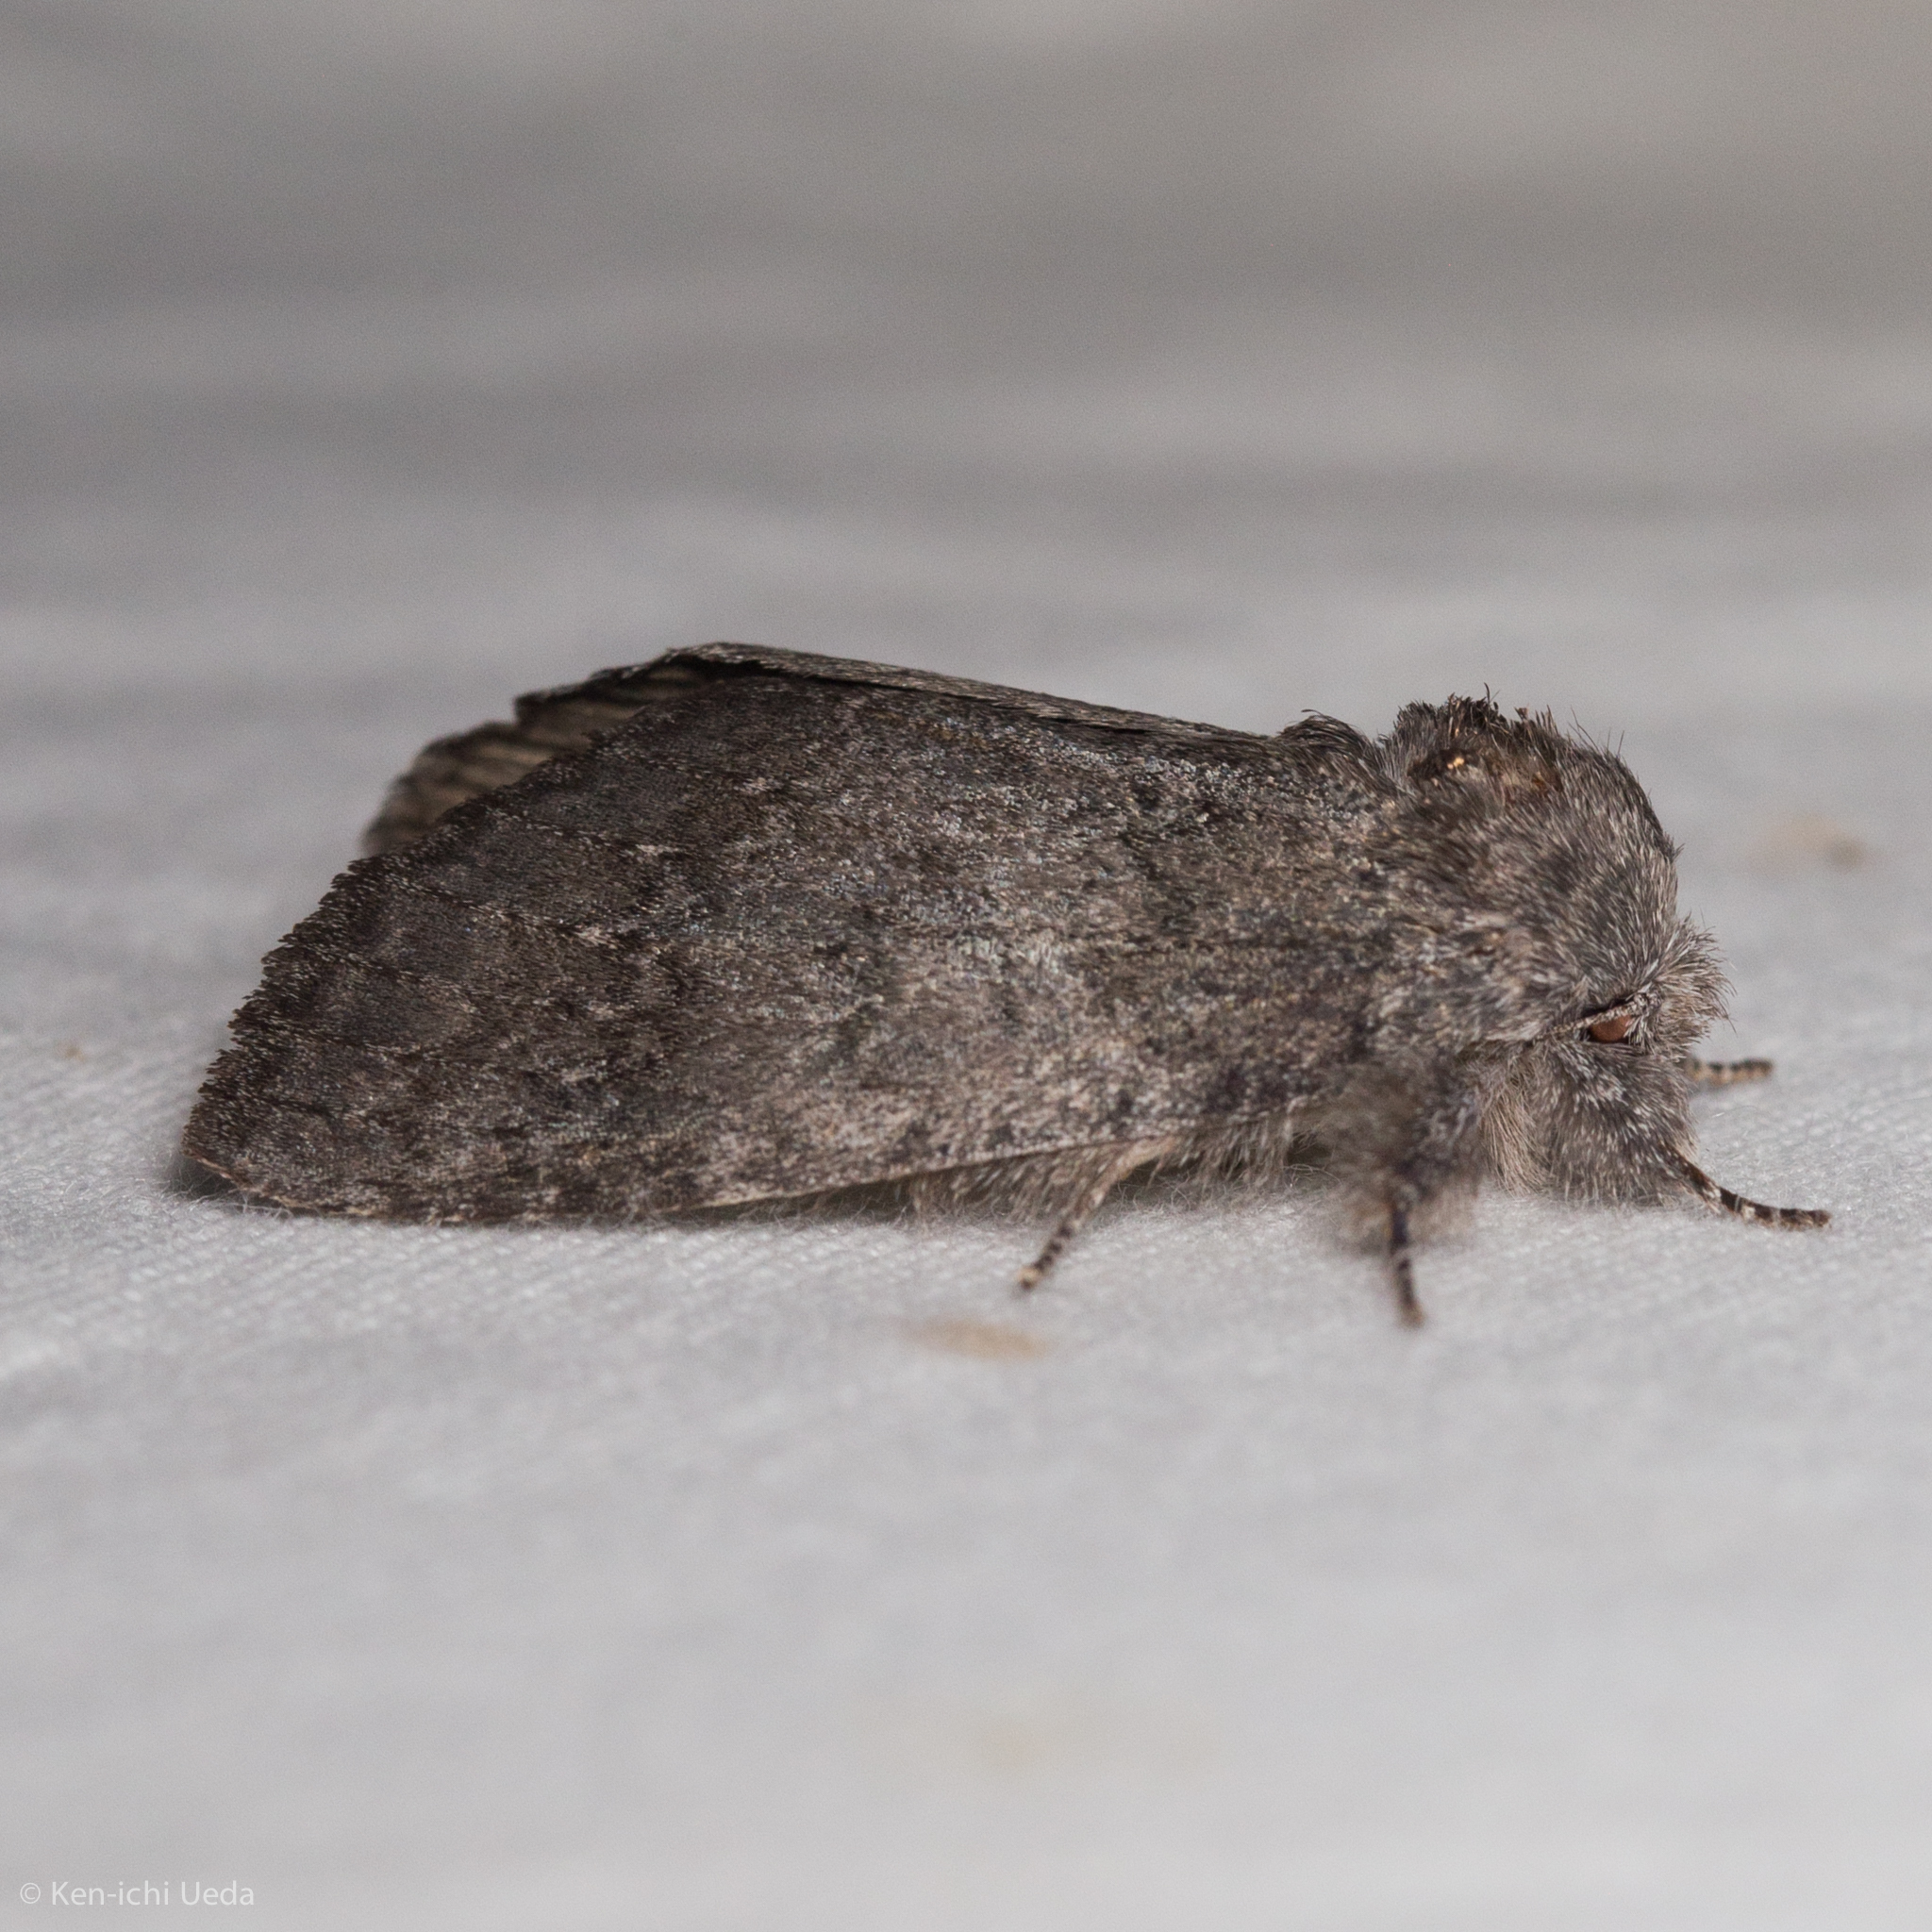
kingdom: Animalia
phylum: Arthropoda
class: Insecta
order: Lepidoptera
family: Notodontidae
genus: Macrurocampa
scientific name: Macrurocampa
